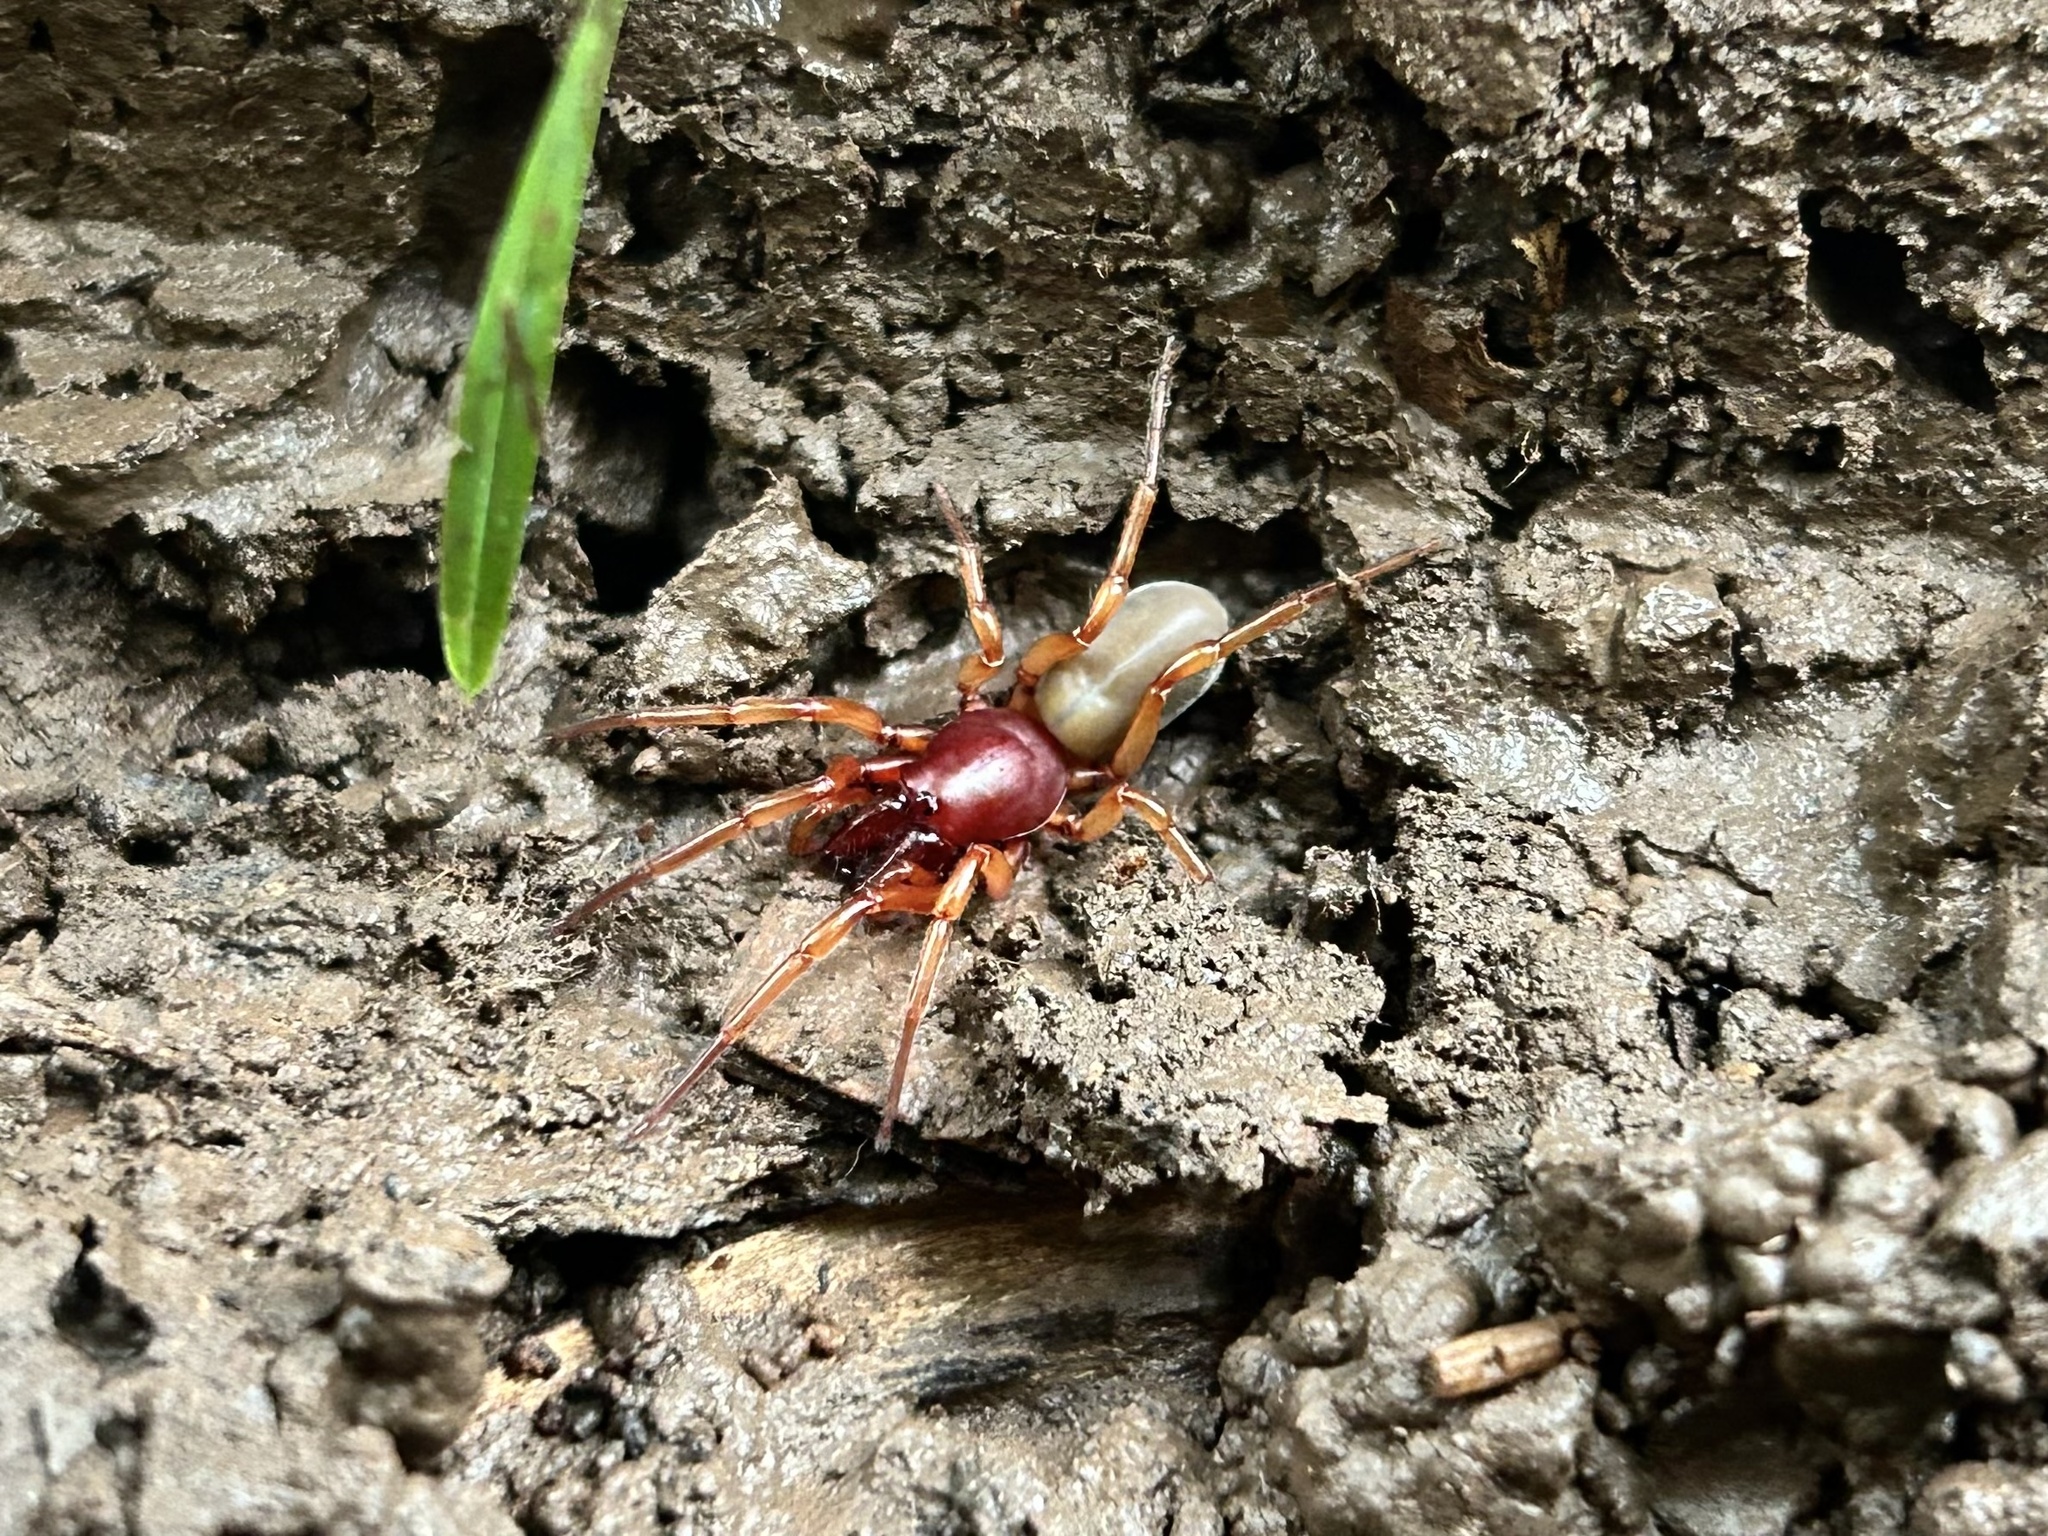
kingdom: Animalia
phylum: Arthropoda
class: Arachnida
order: Araneae
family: Dysderidae
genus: Dysdera
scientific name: Dysdera crocata
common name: Woodlouse spider
